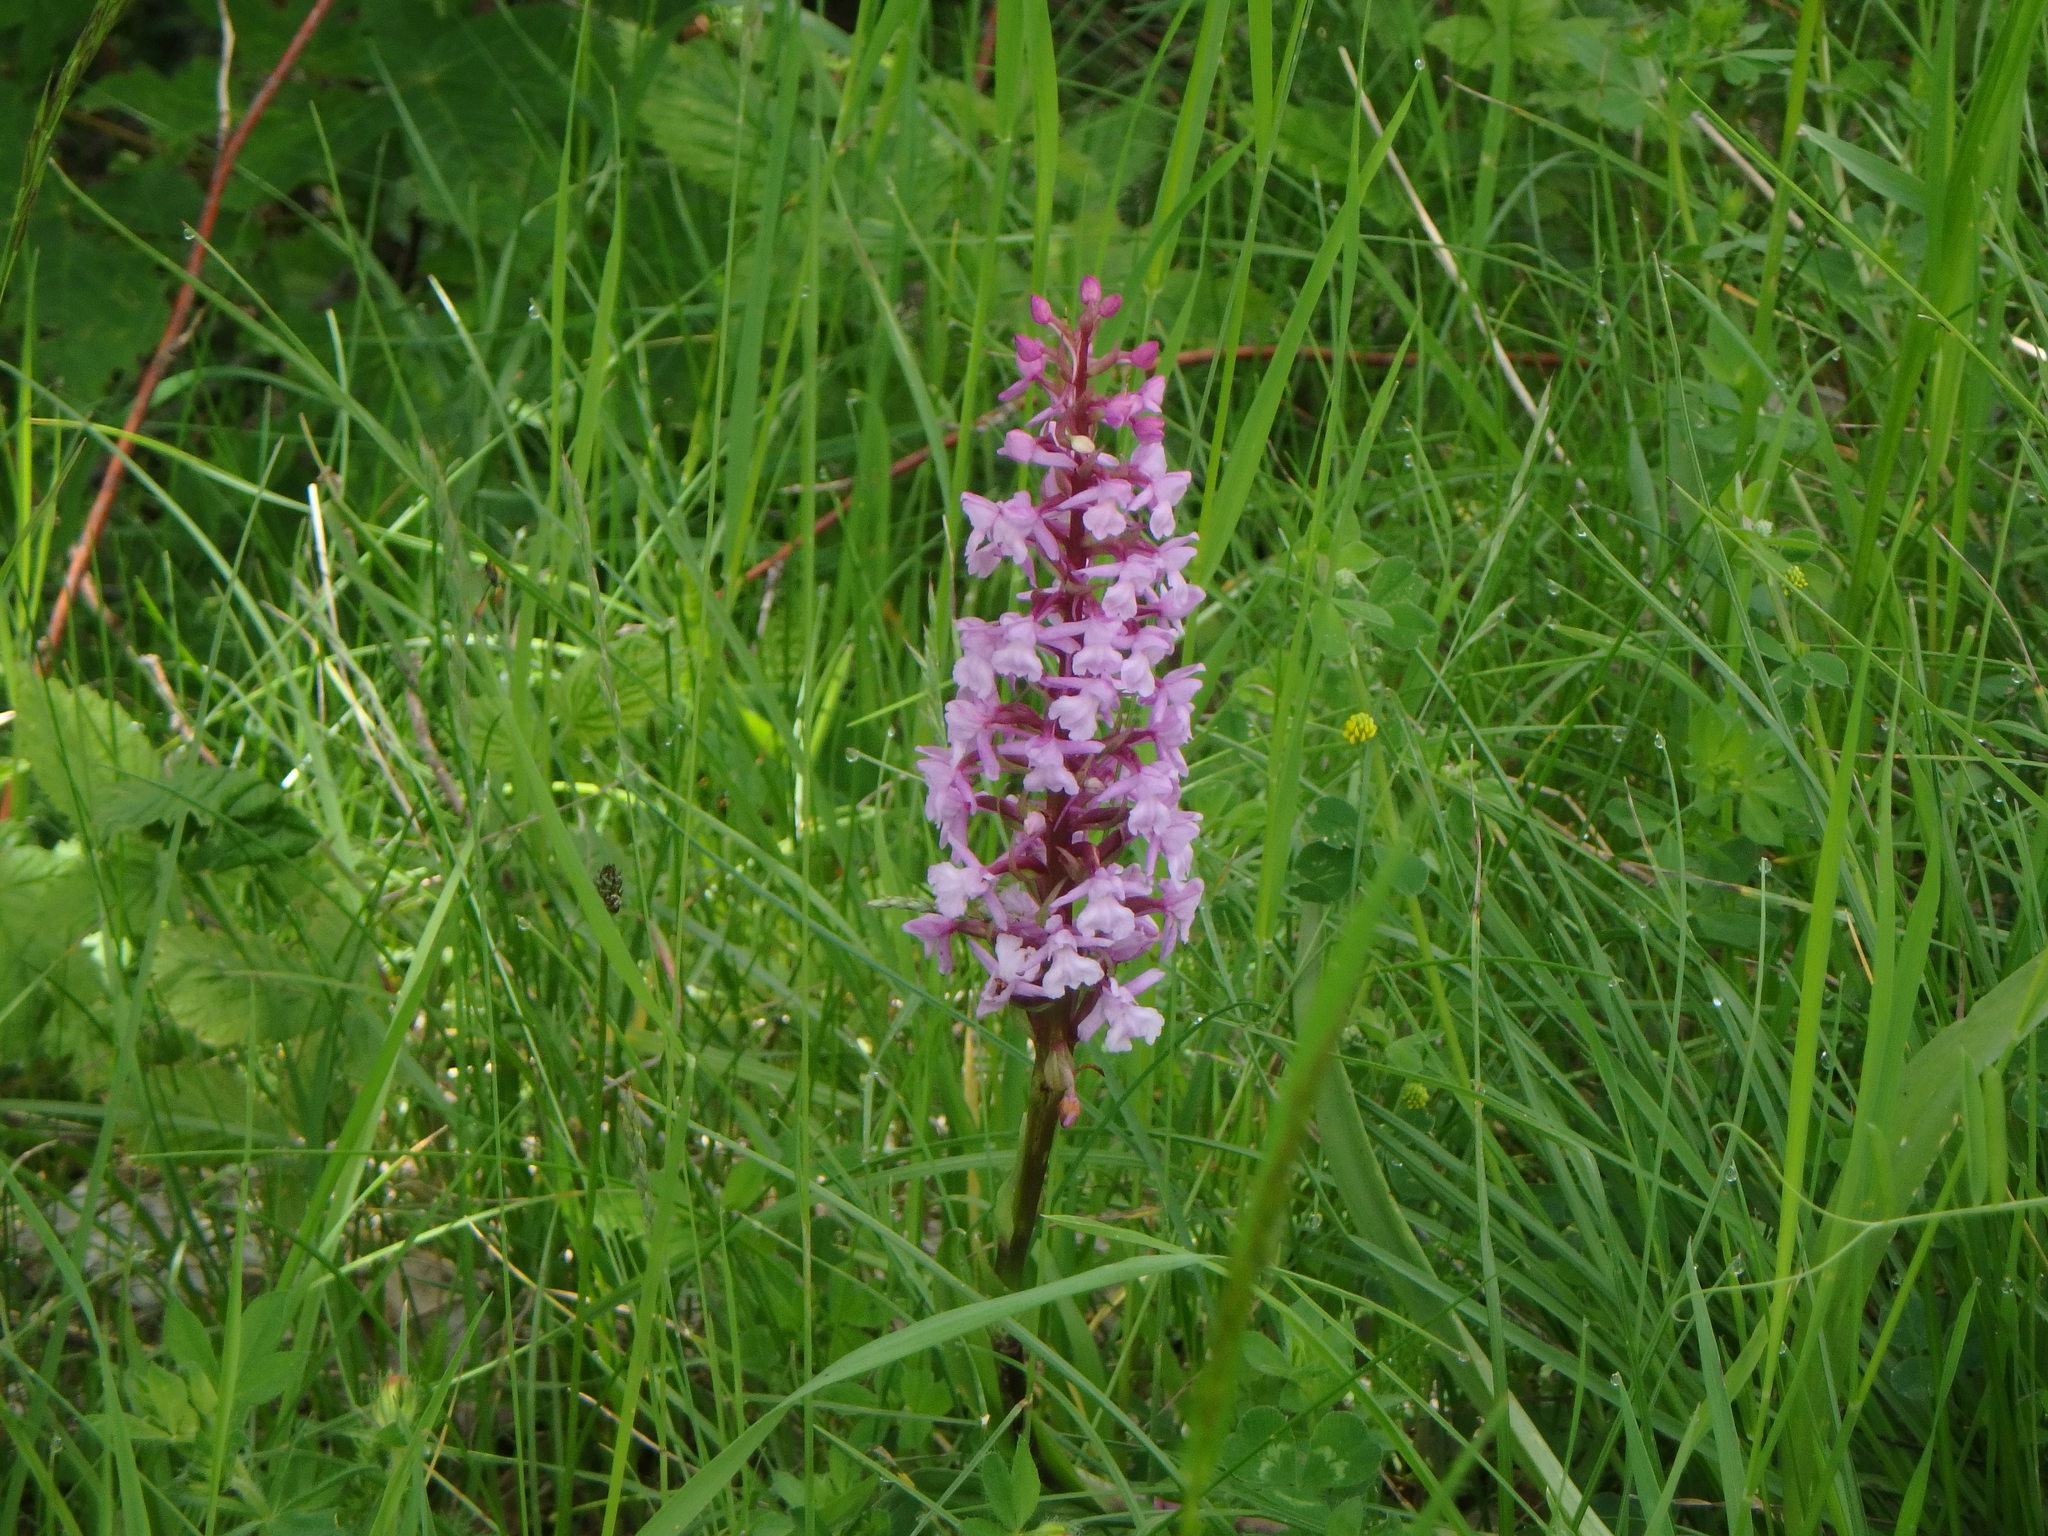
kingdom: Plantae
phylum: Tracheophyta
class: Liliopsida
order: Asparagales
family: Orchidaceae
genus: Gymnadenia
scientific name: Gymnadenia conopsea
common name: Fragrant orchid
